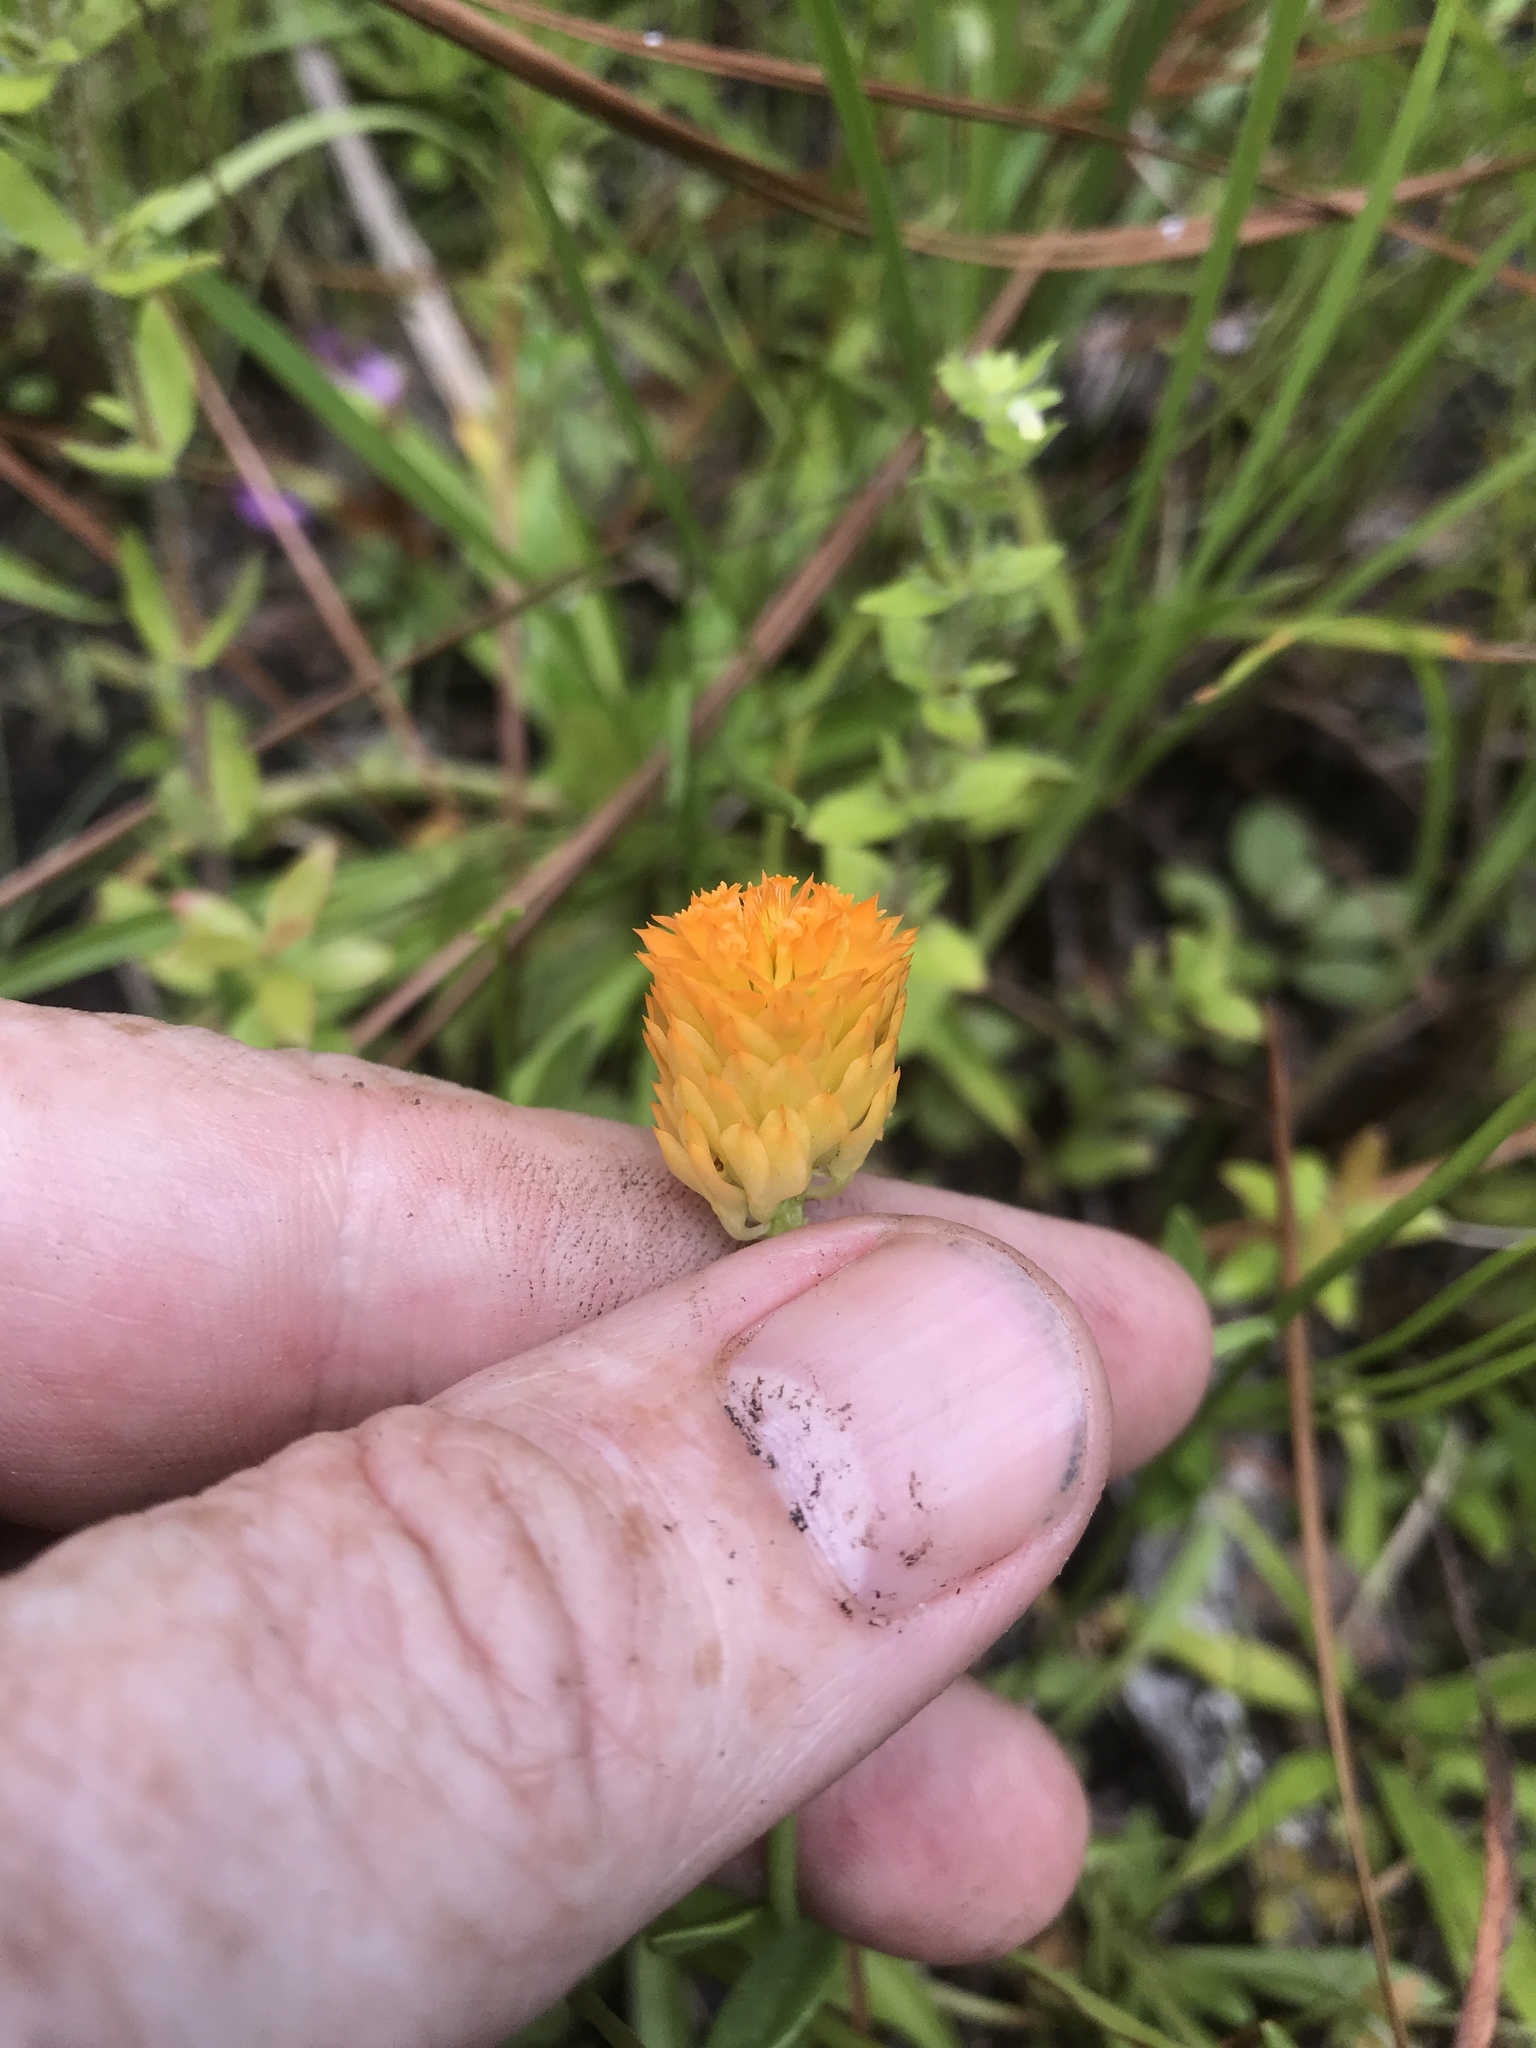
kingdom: Plantae
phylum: Tracheophyta
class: Magnoliopsida
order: Fabales
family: Polygalaceae
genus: Polygala
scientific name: Polygala lutea
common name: Orange milkwort
